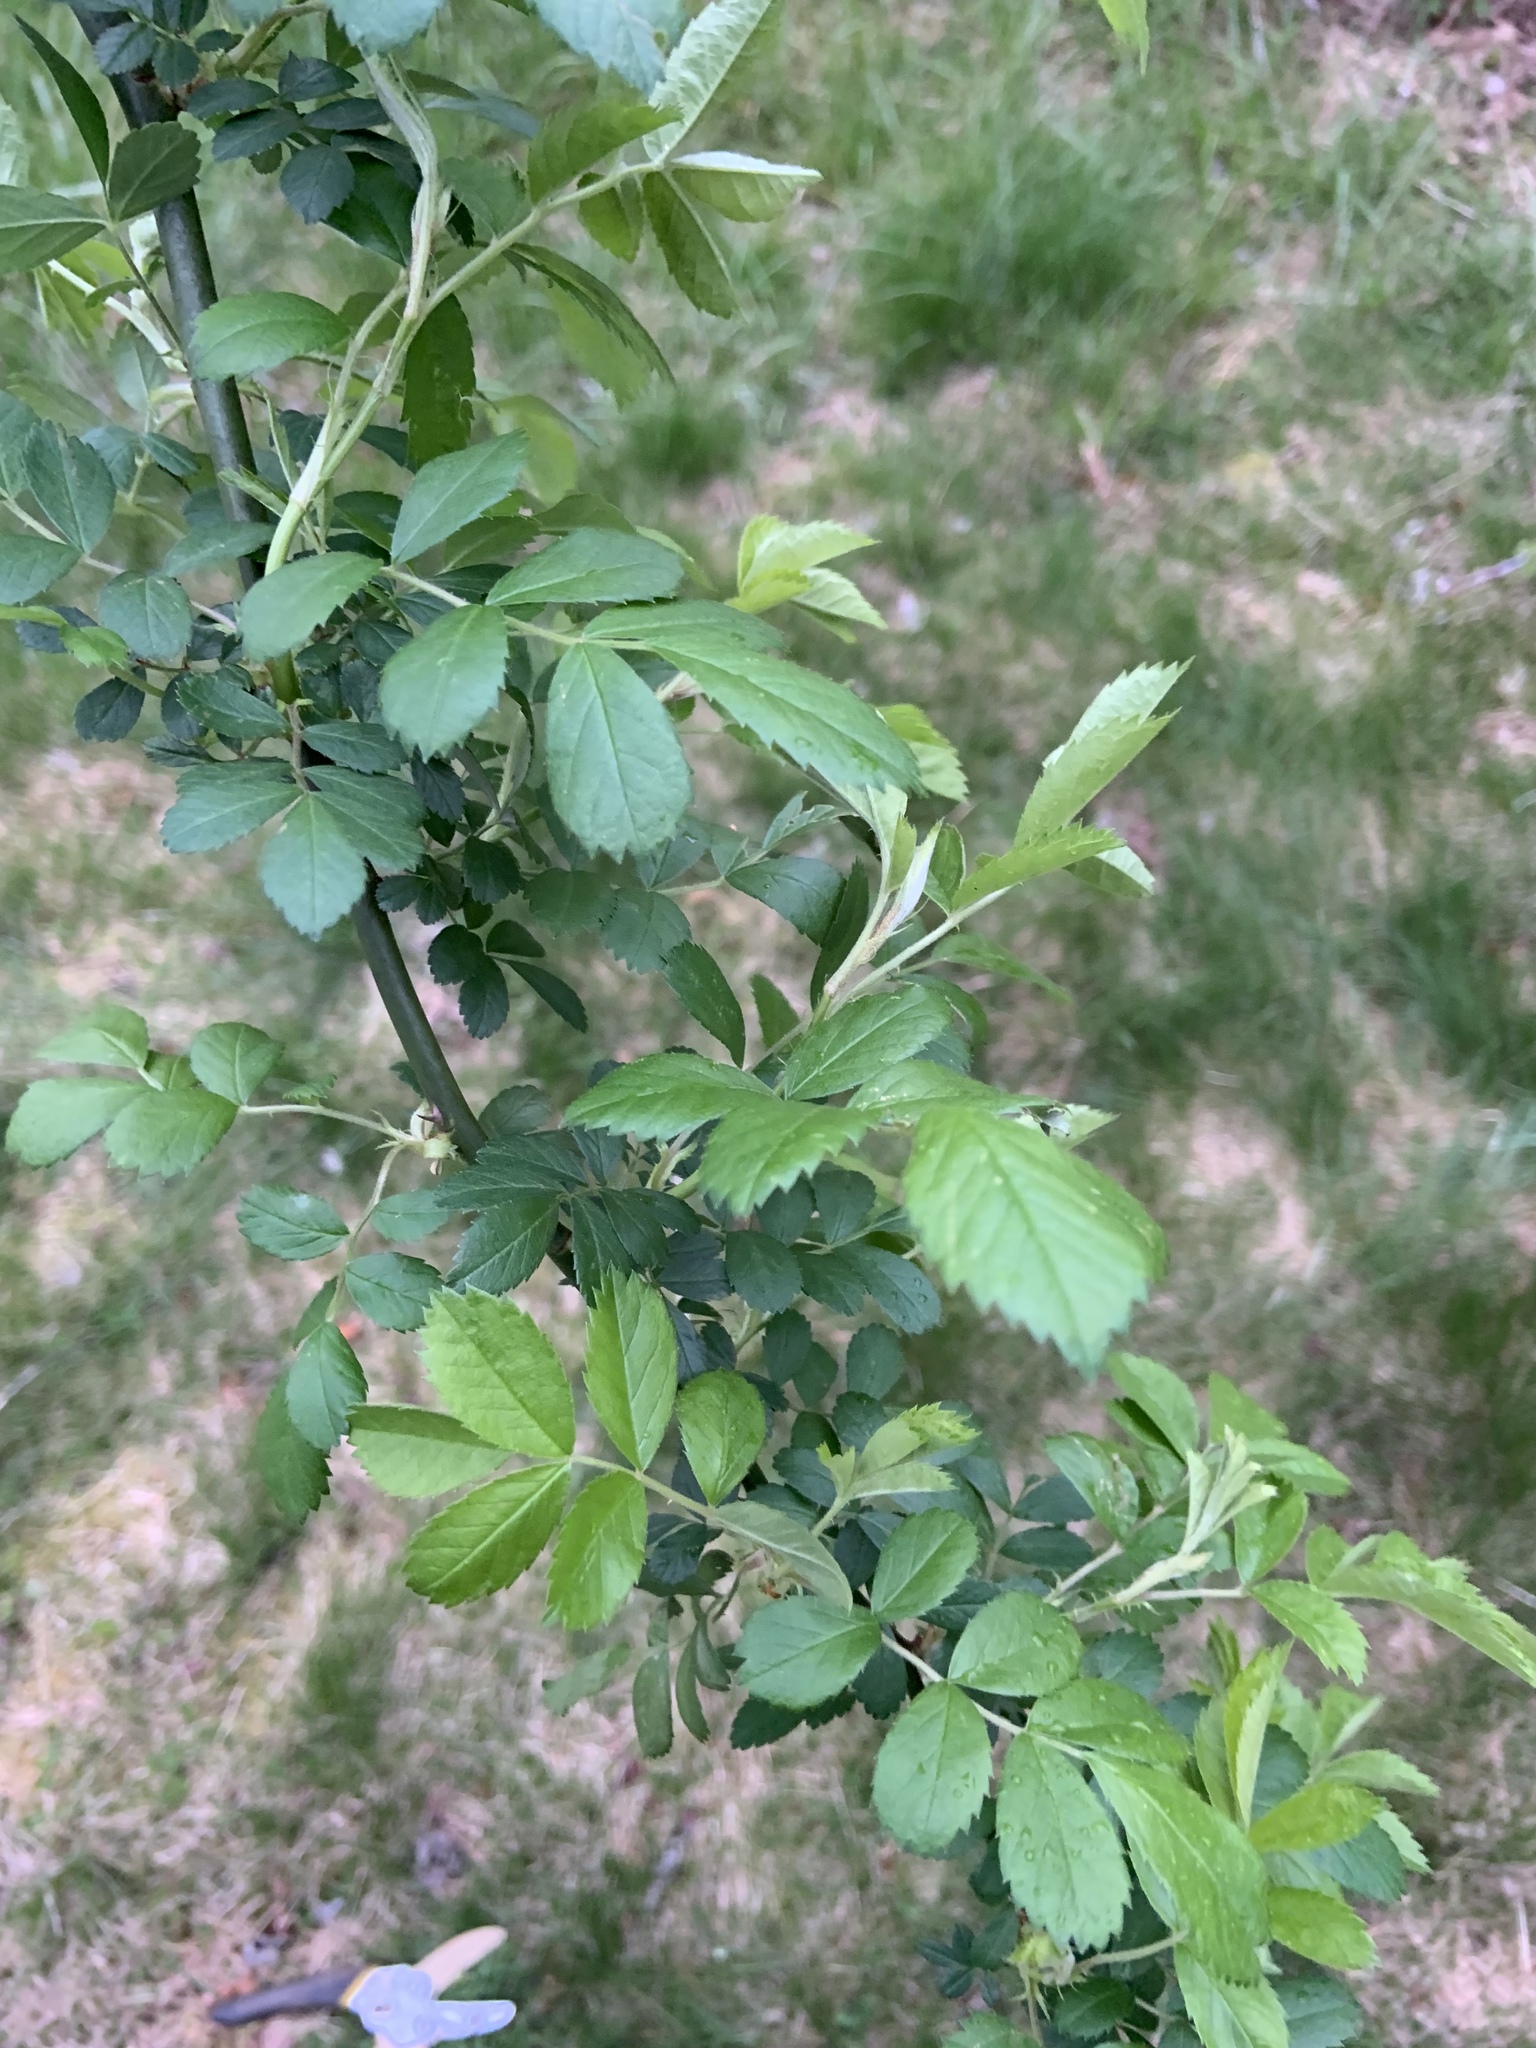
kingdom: Plantae
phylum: Tracheophyta
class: Magnoliopsida
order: Rosales
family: Rosaceae
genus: Rosa
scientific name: Rosa multiflora
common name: Multiflora rose
